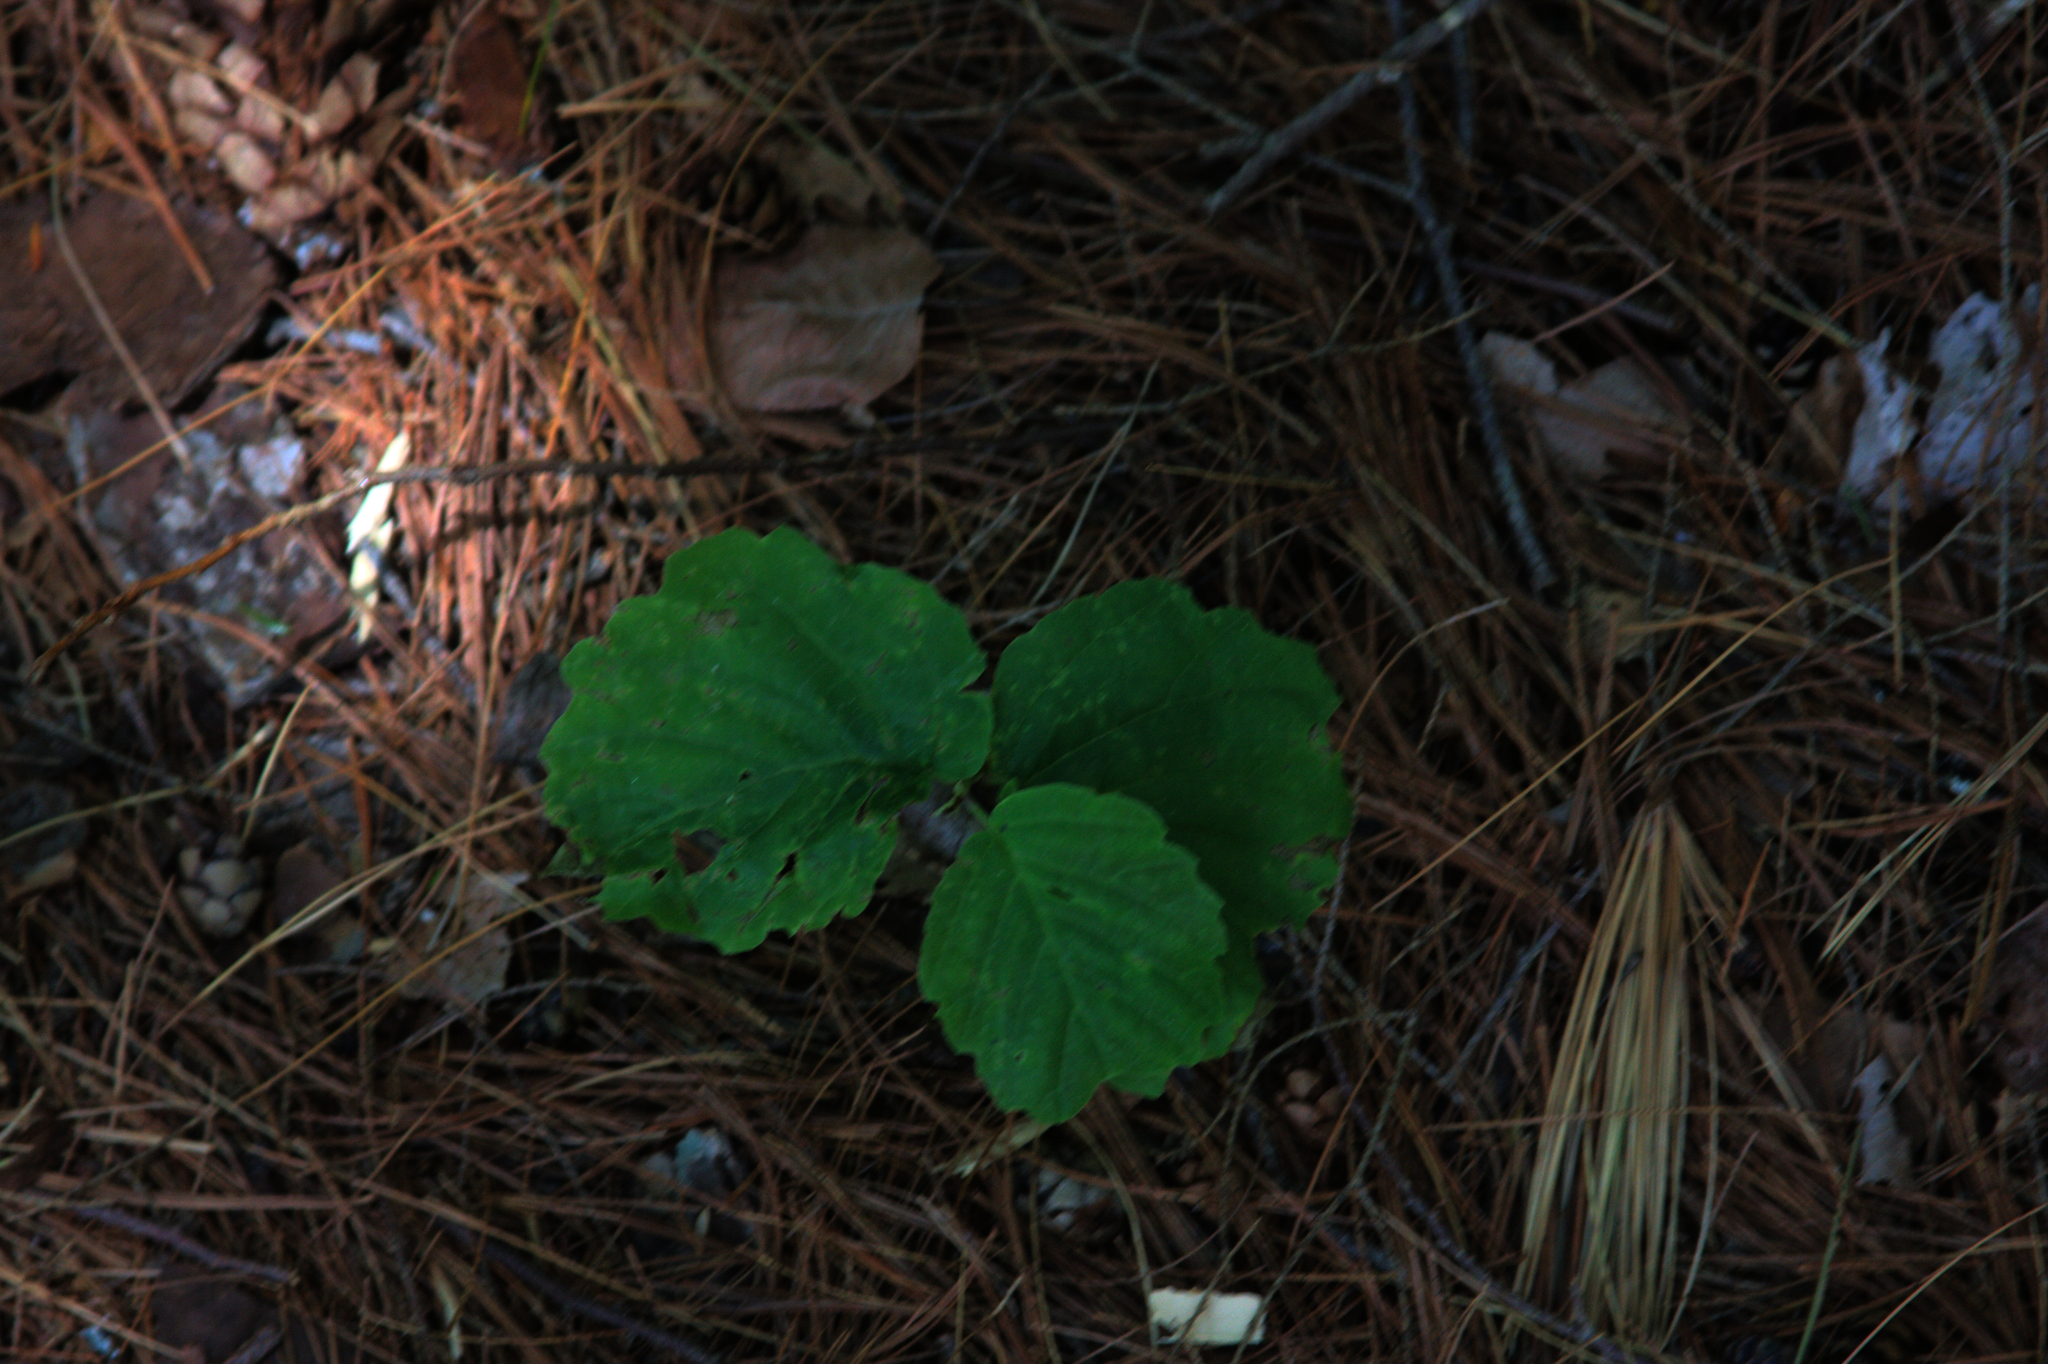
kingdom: Plantae
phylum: Tracheophyta
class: Magnoliopsida
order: Saxifragales
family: Hamamelidaceae
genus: Hamamelis
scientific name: Hamamelis virginiana
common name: Witch-hazel
